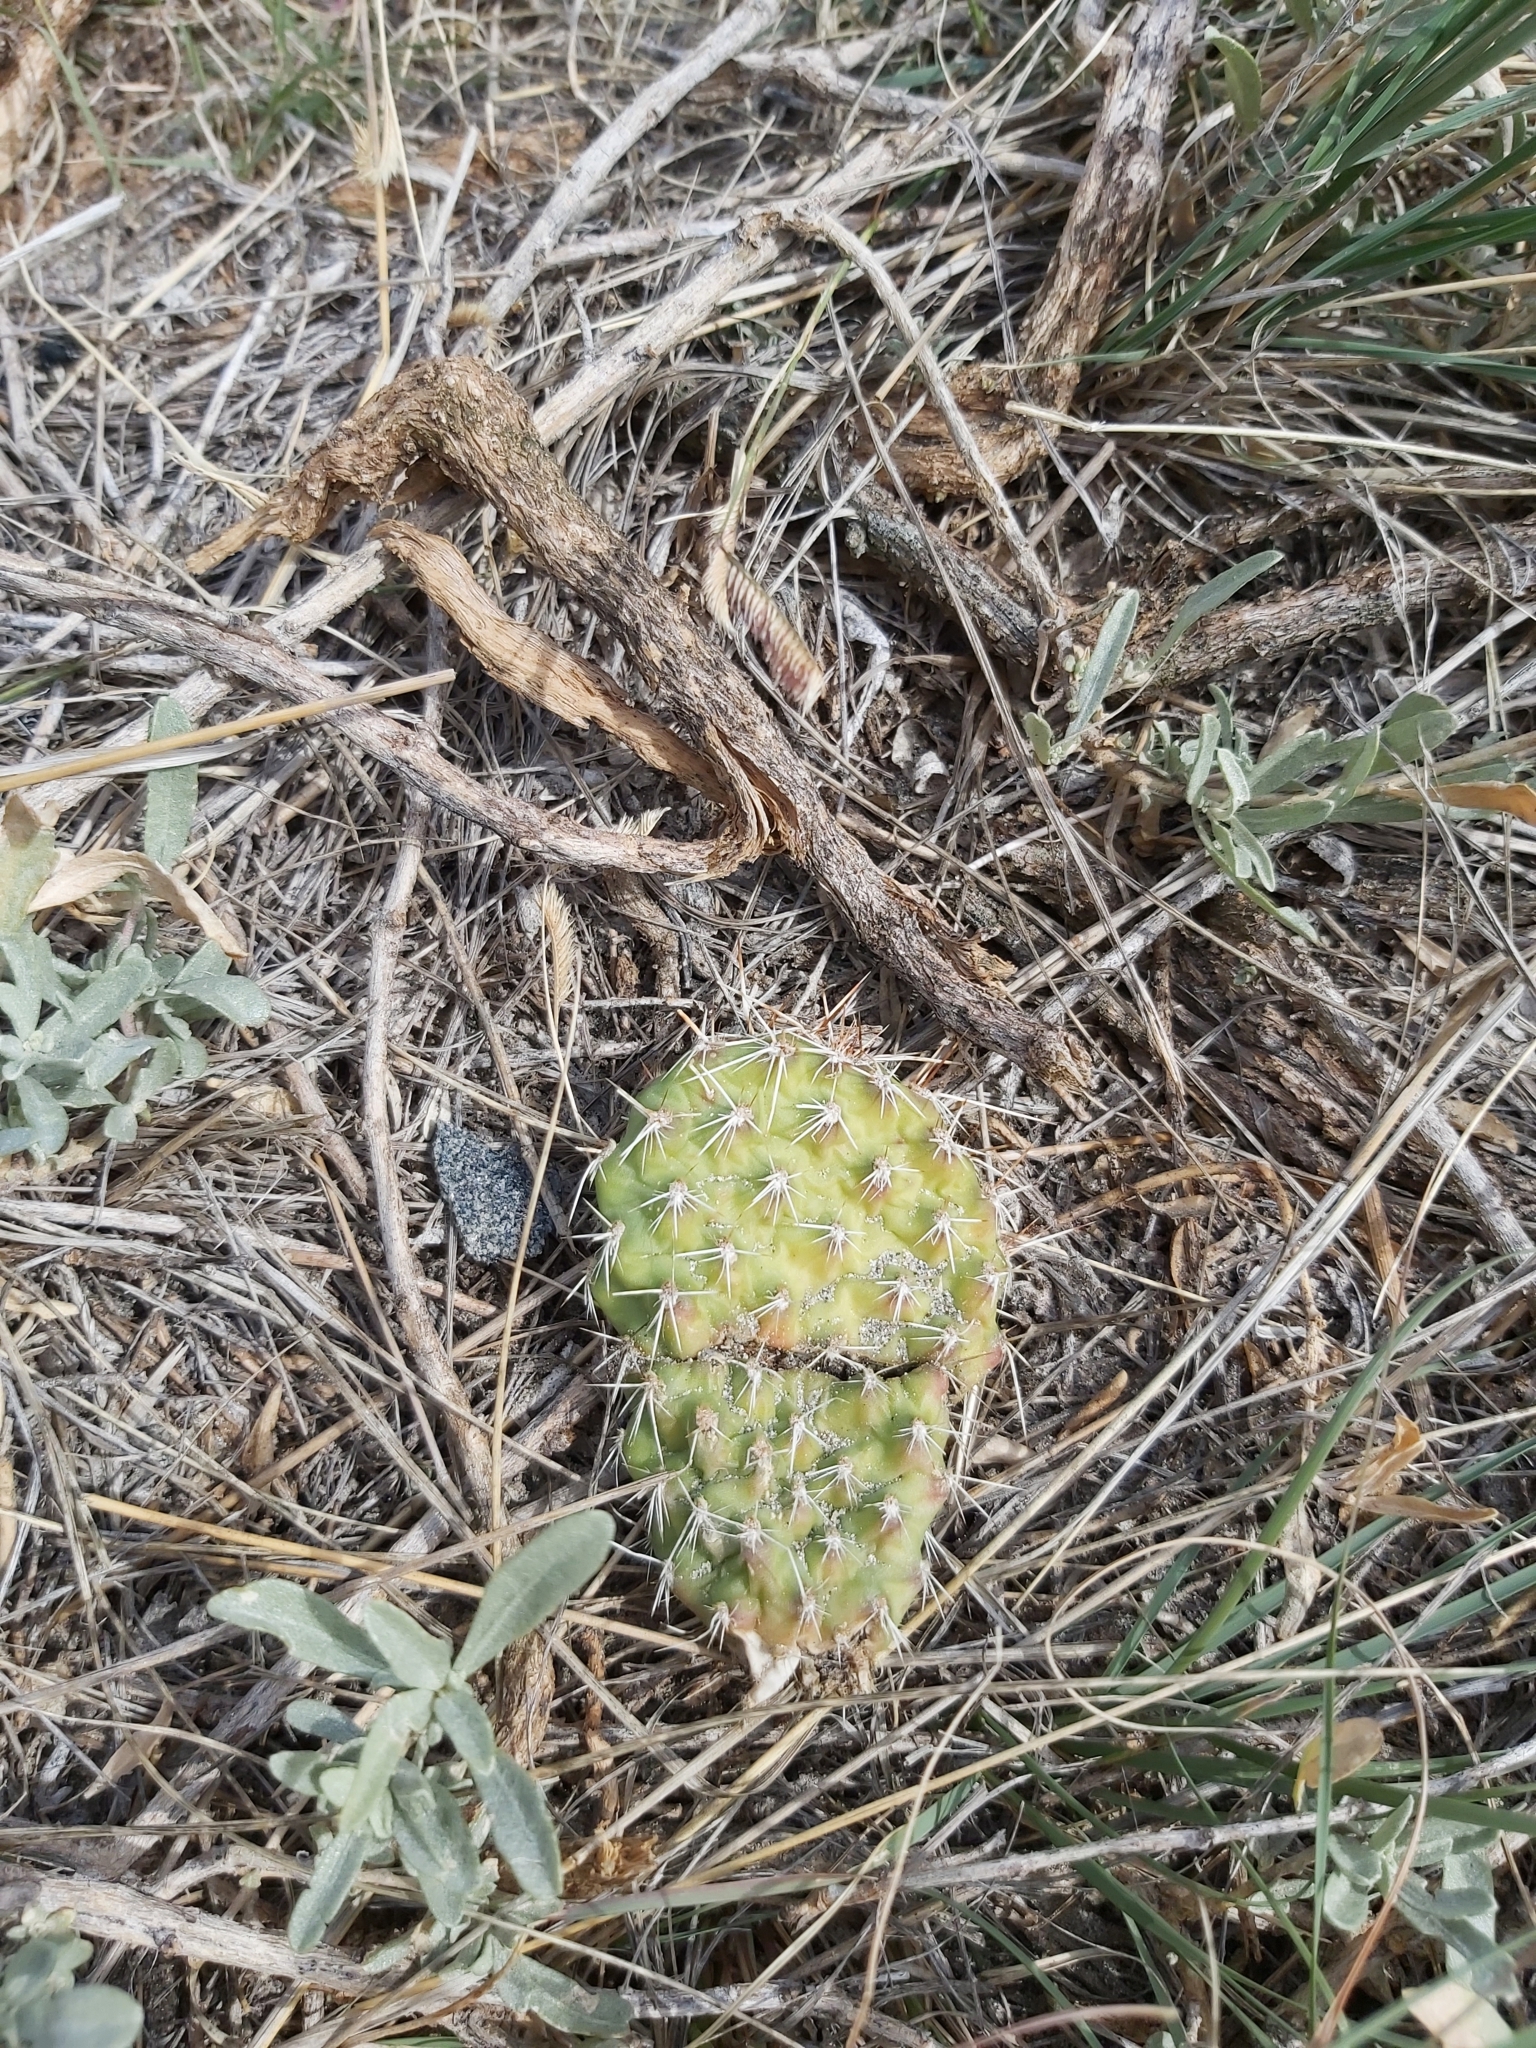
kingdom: Plantae
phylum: Tracheophyta
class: Magnoliopsida
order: Caryophyllales
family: Cactaceae
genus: Opuntia
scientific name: Opuntia polyacantha
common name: Plains prickly-pear
